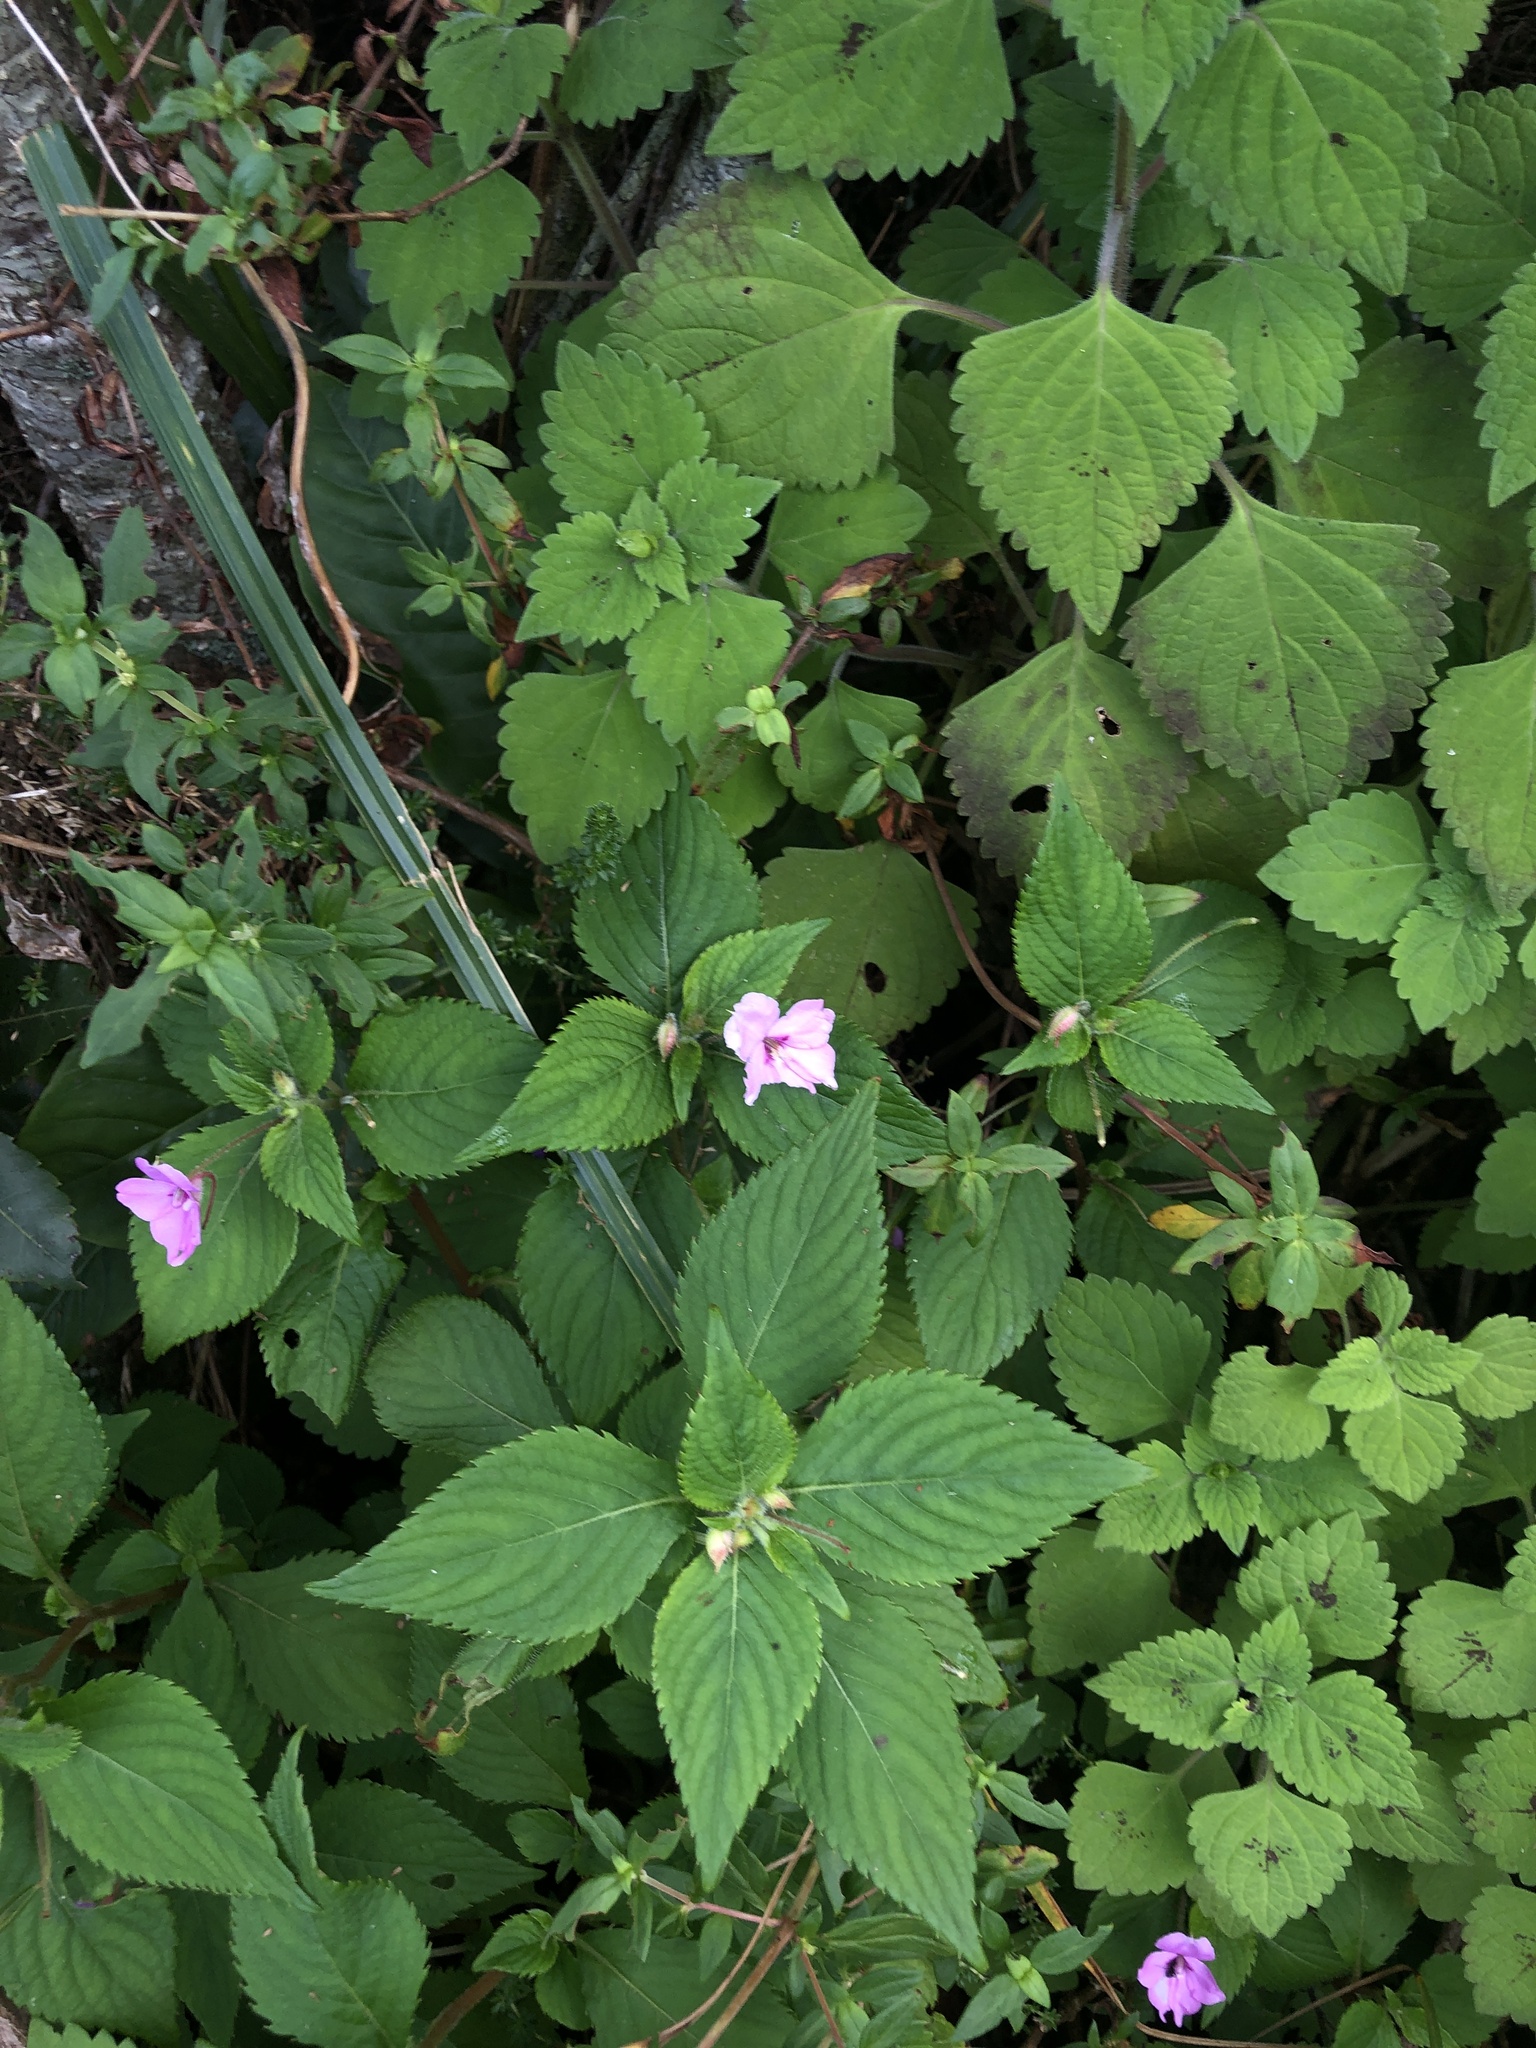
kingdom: Plantae
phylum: Tracheophyta
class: Magnoliopsida
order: Ericales
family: Balsaminaceae
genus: Impatiens
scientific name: Impatiens sylvicola
